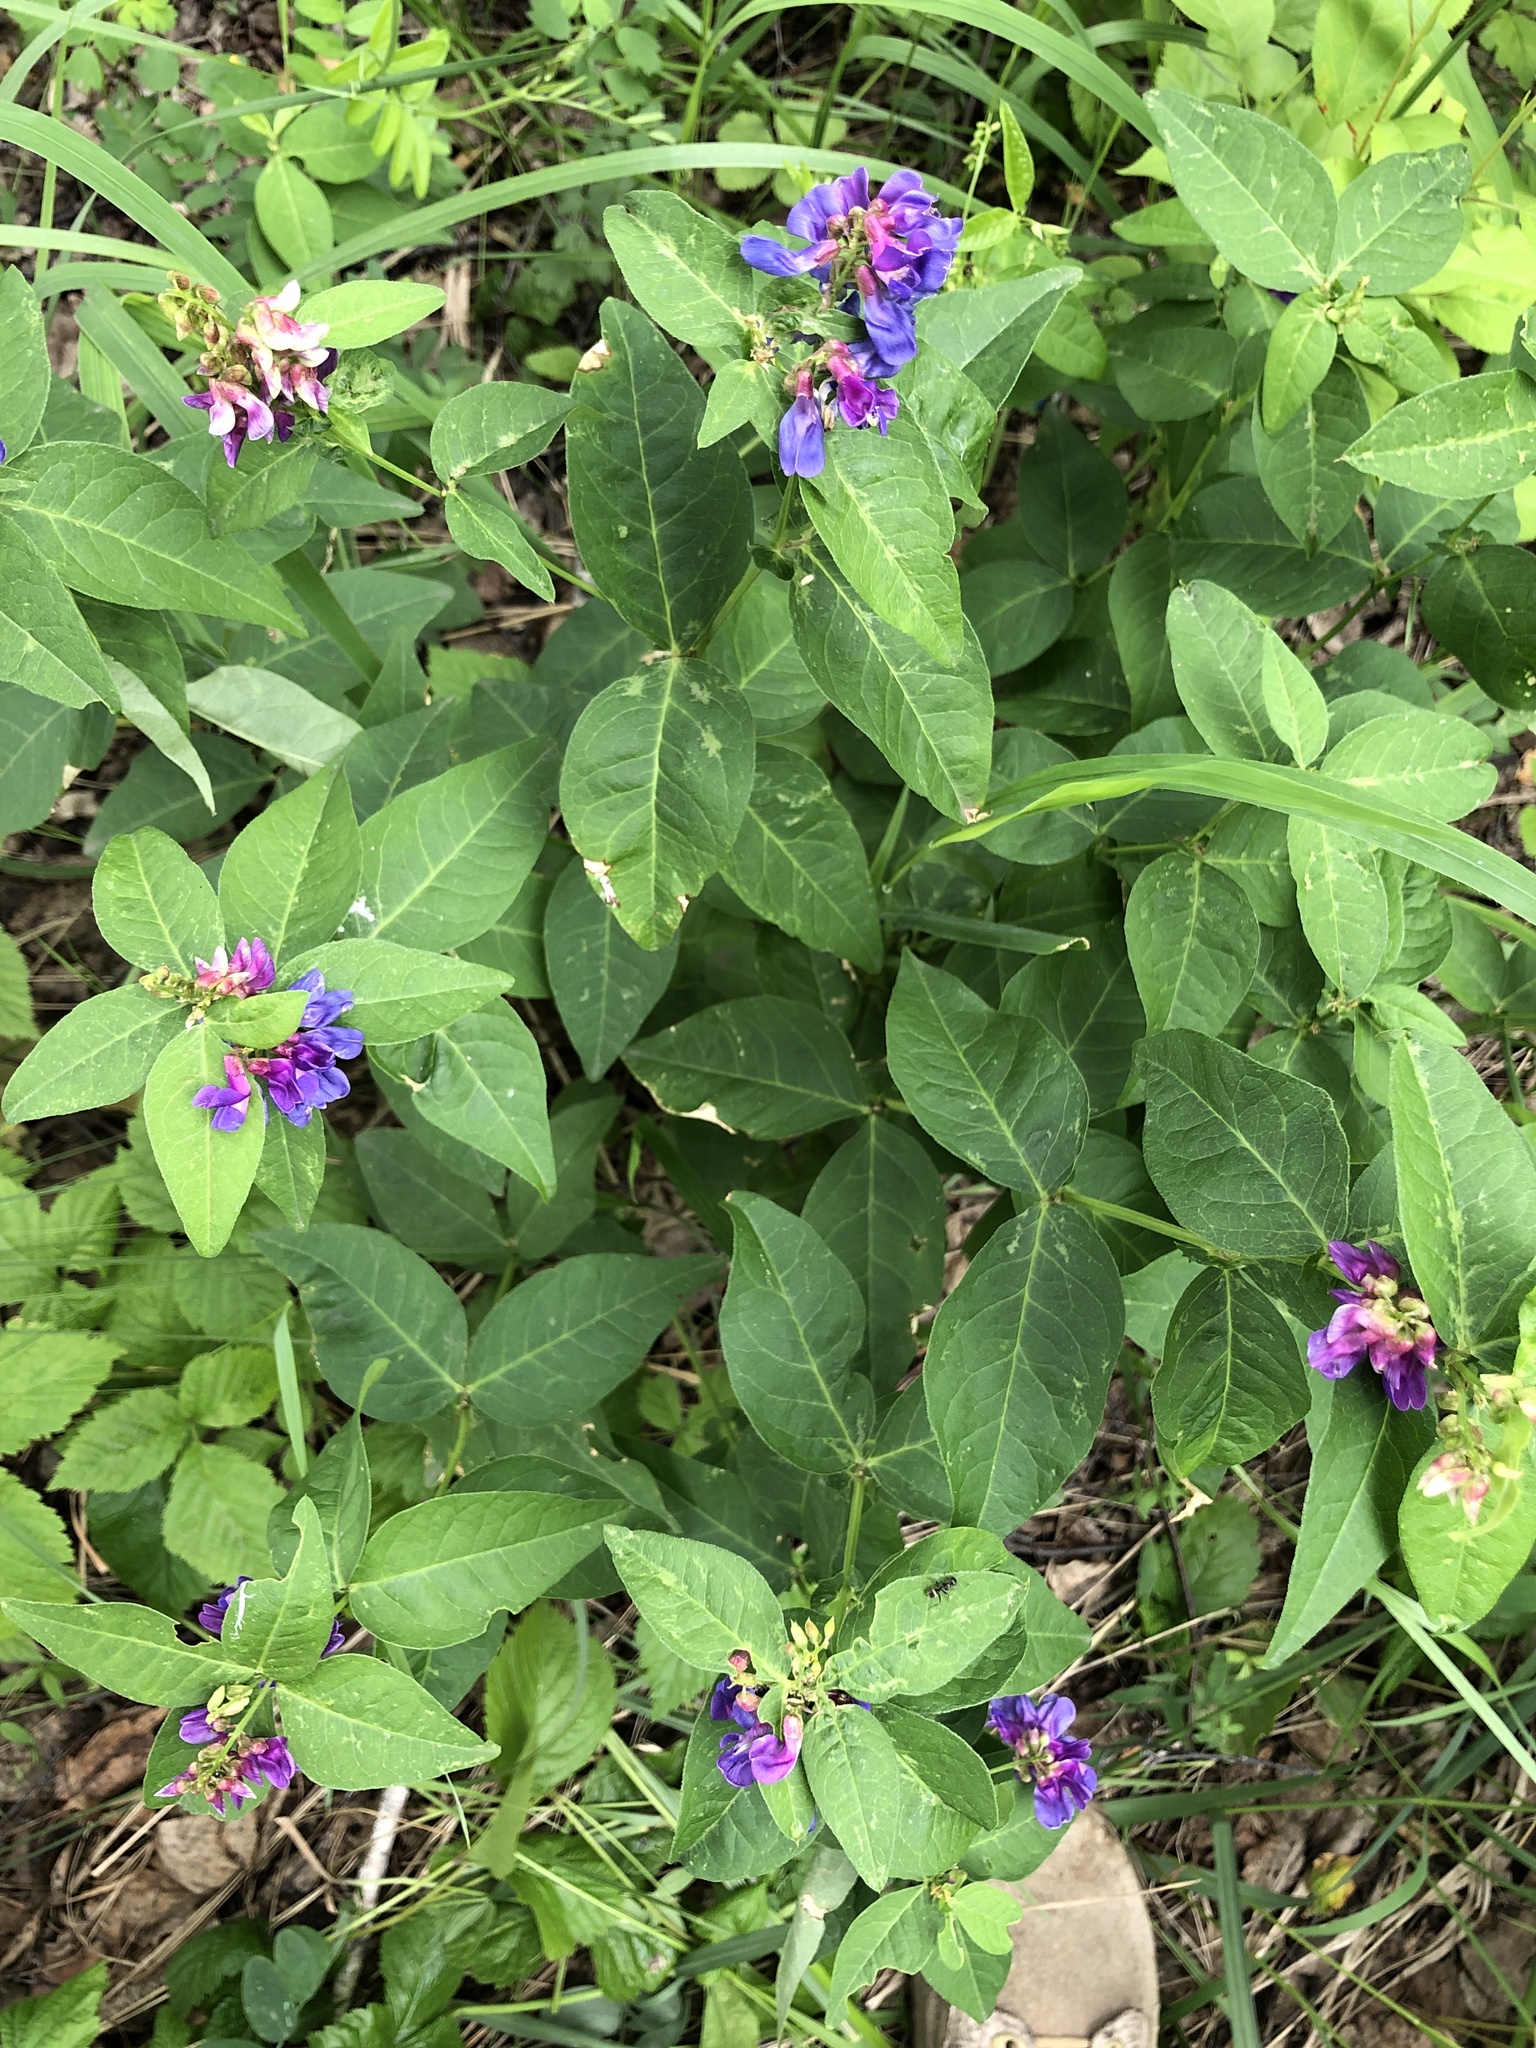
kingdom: Plantae
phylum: Tracheophyta
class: Magnoliopsida
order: Fabales
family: Fabaceae
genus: Vicia
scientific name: Vicia unijuga
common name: Two-leaf vetch
